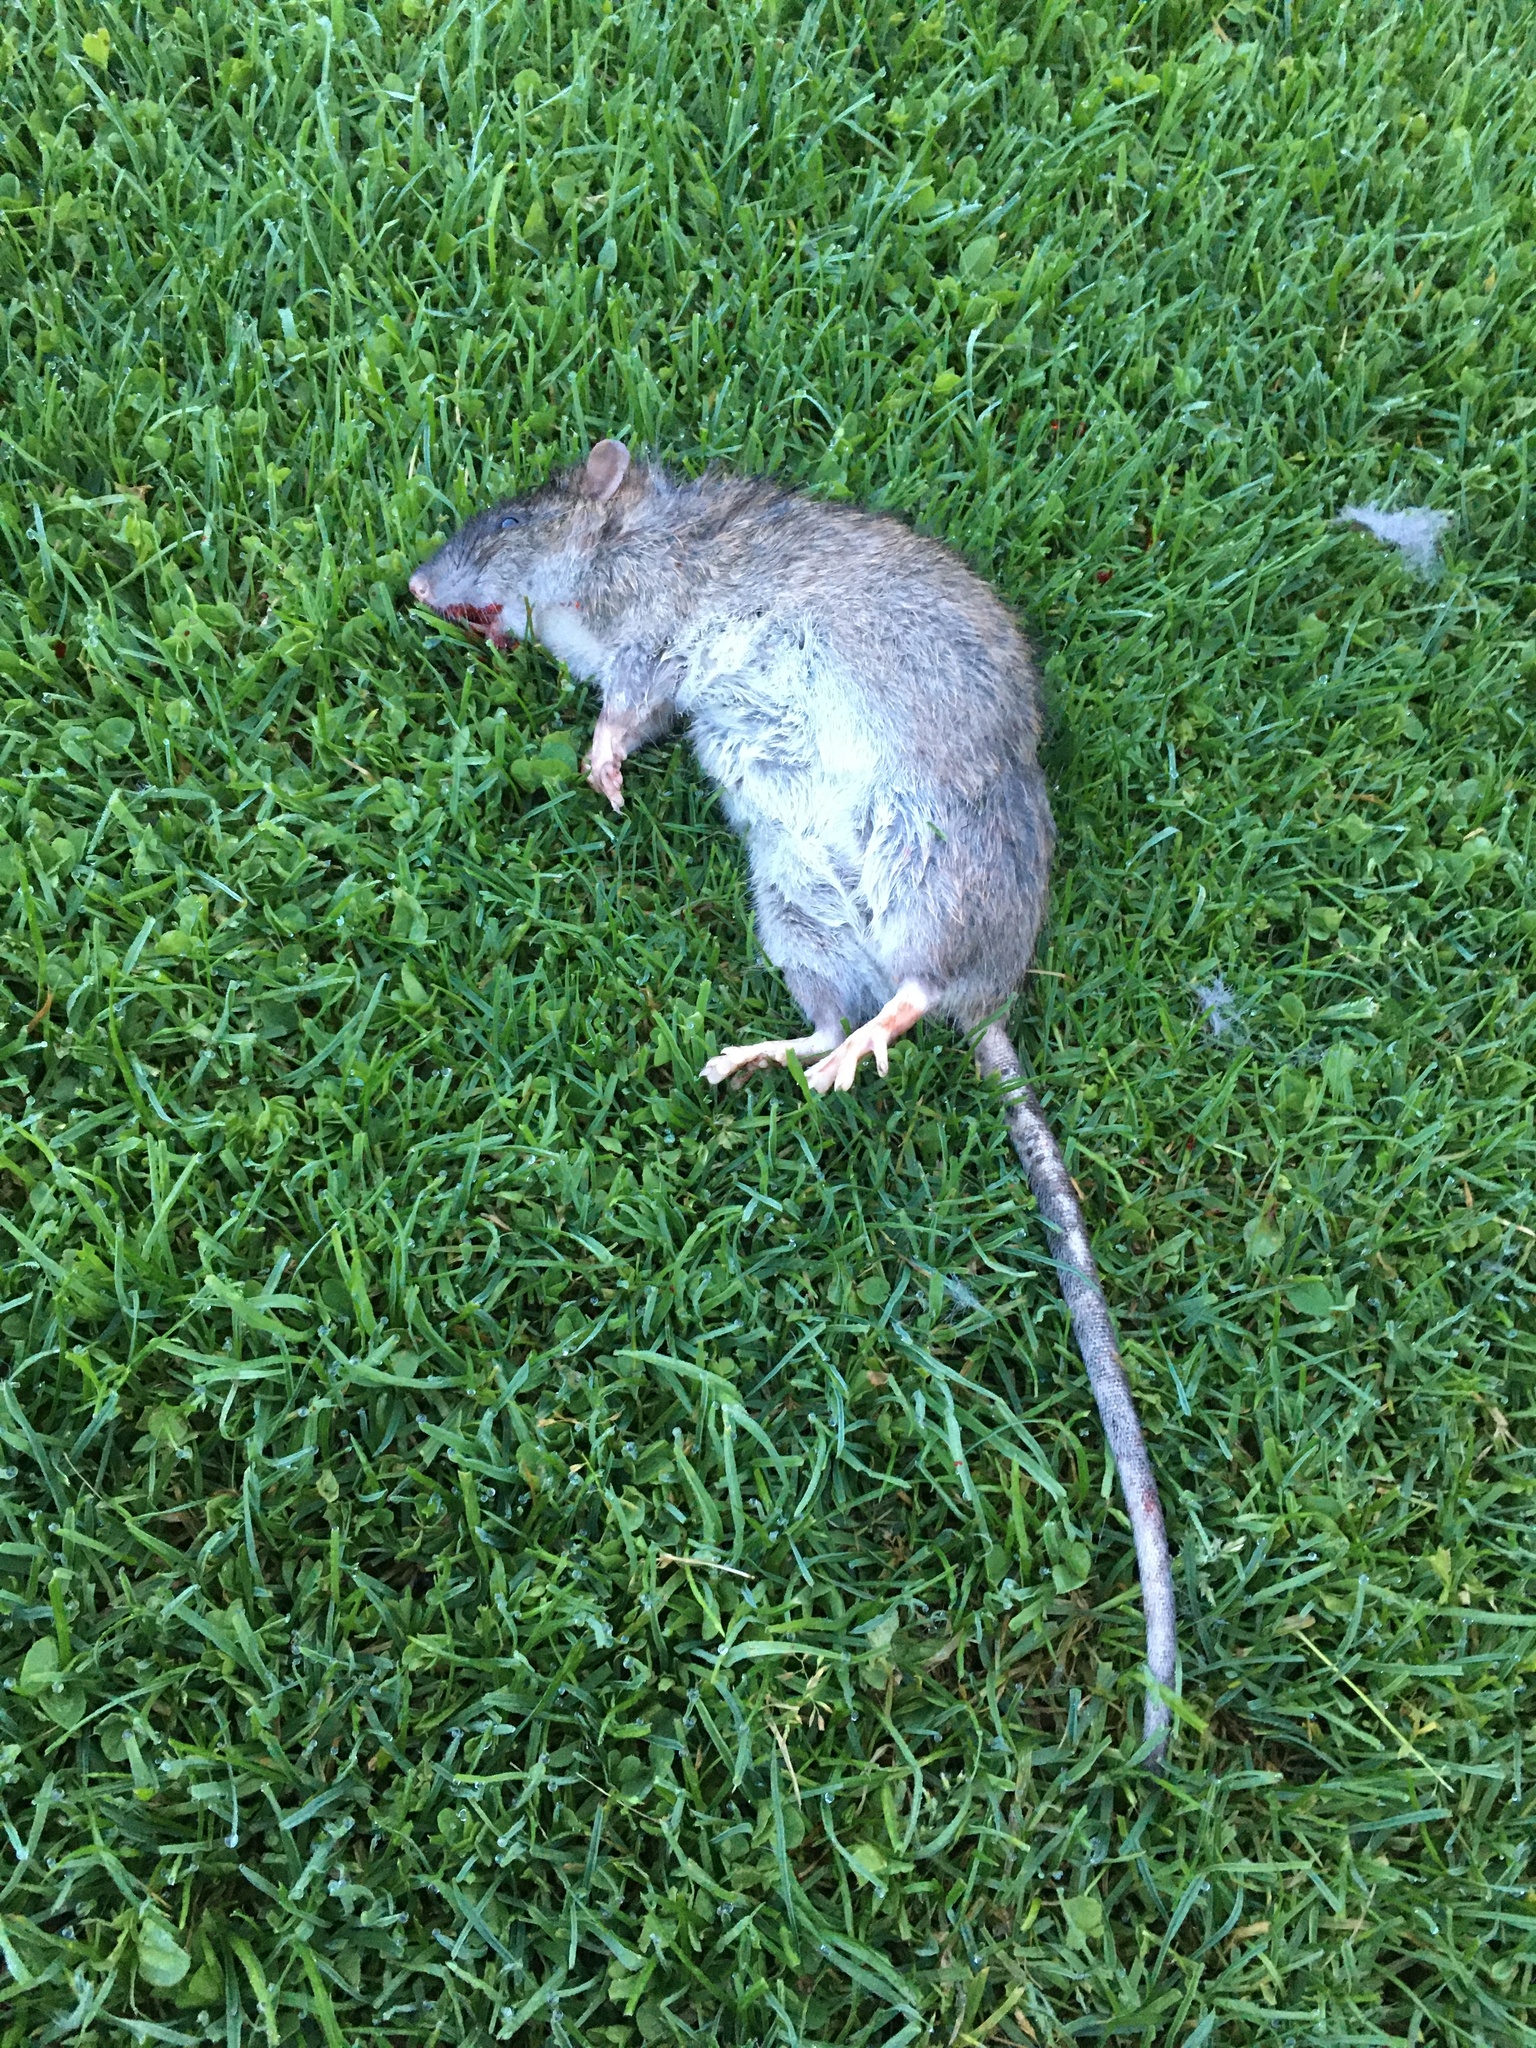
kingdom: Animalia
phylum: Chordata
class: Mammalia
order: Rodentia
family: Muridae
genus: Rattus
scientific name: Rattus norvegicus
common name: Brown rat
